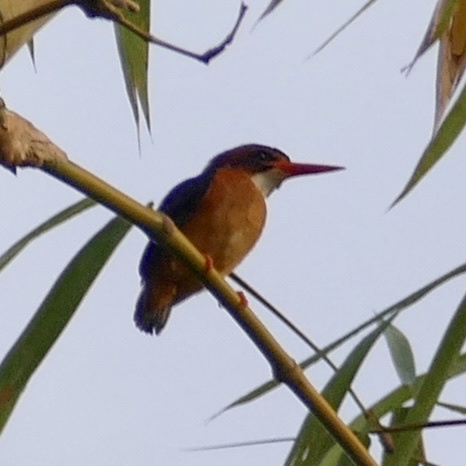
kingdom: Animalia
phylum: Chordata
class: Aves
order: Coraciiformes
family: Alcedinidae
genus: Ispidina
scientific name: Ispidina picta
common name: African pygmy-kingfisher
